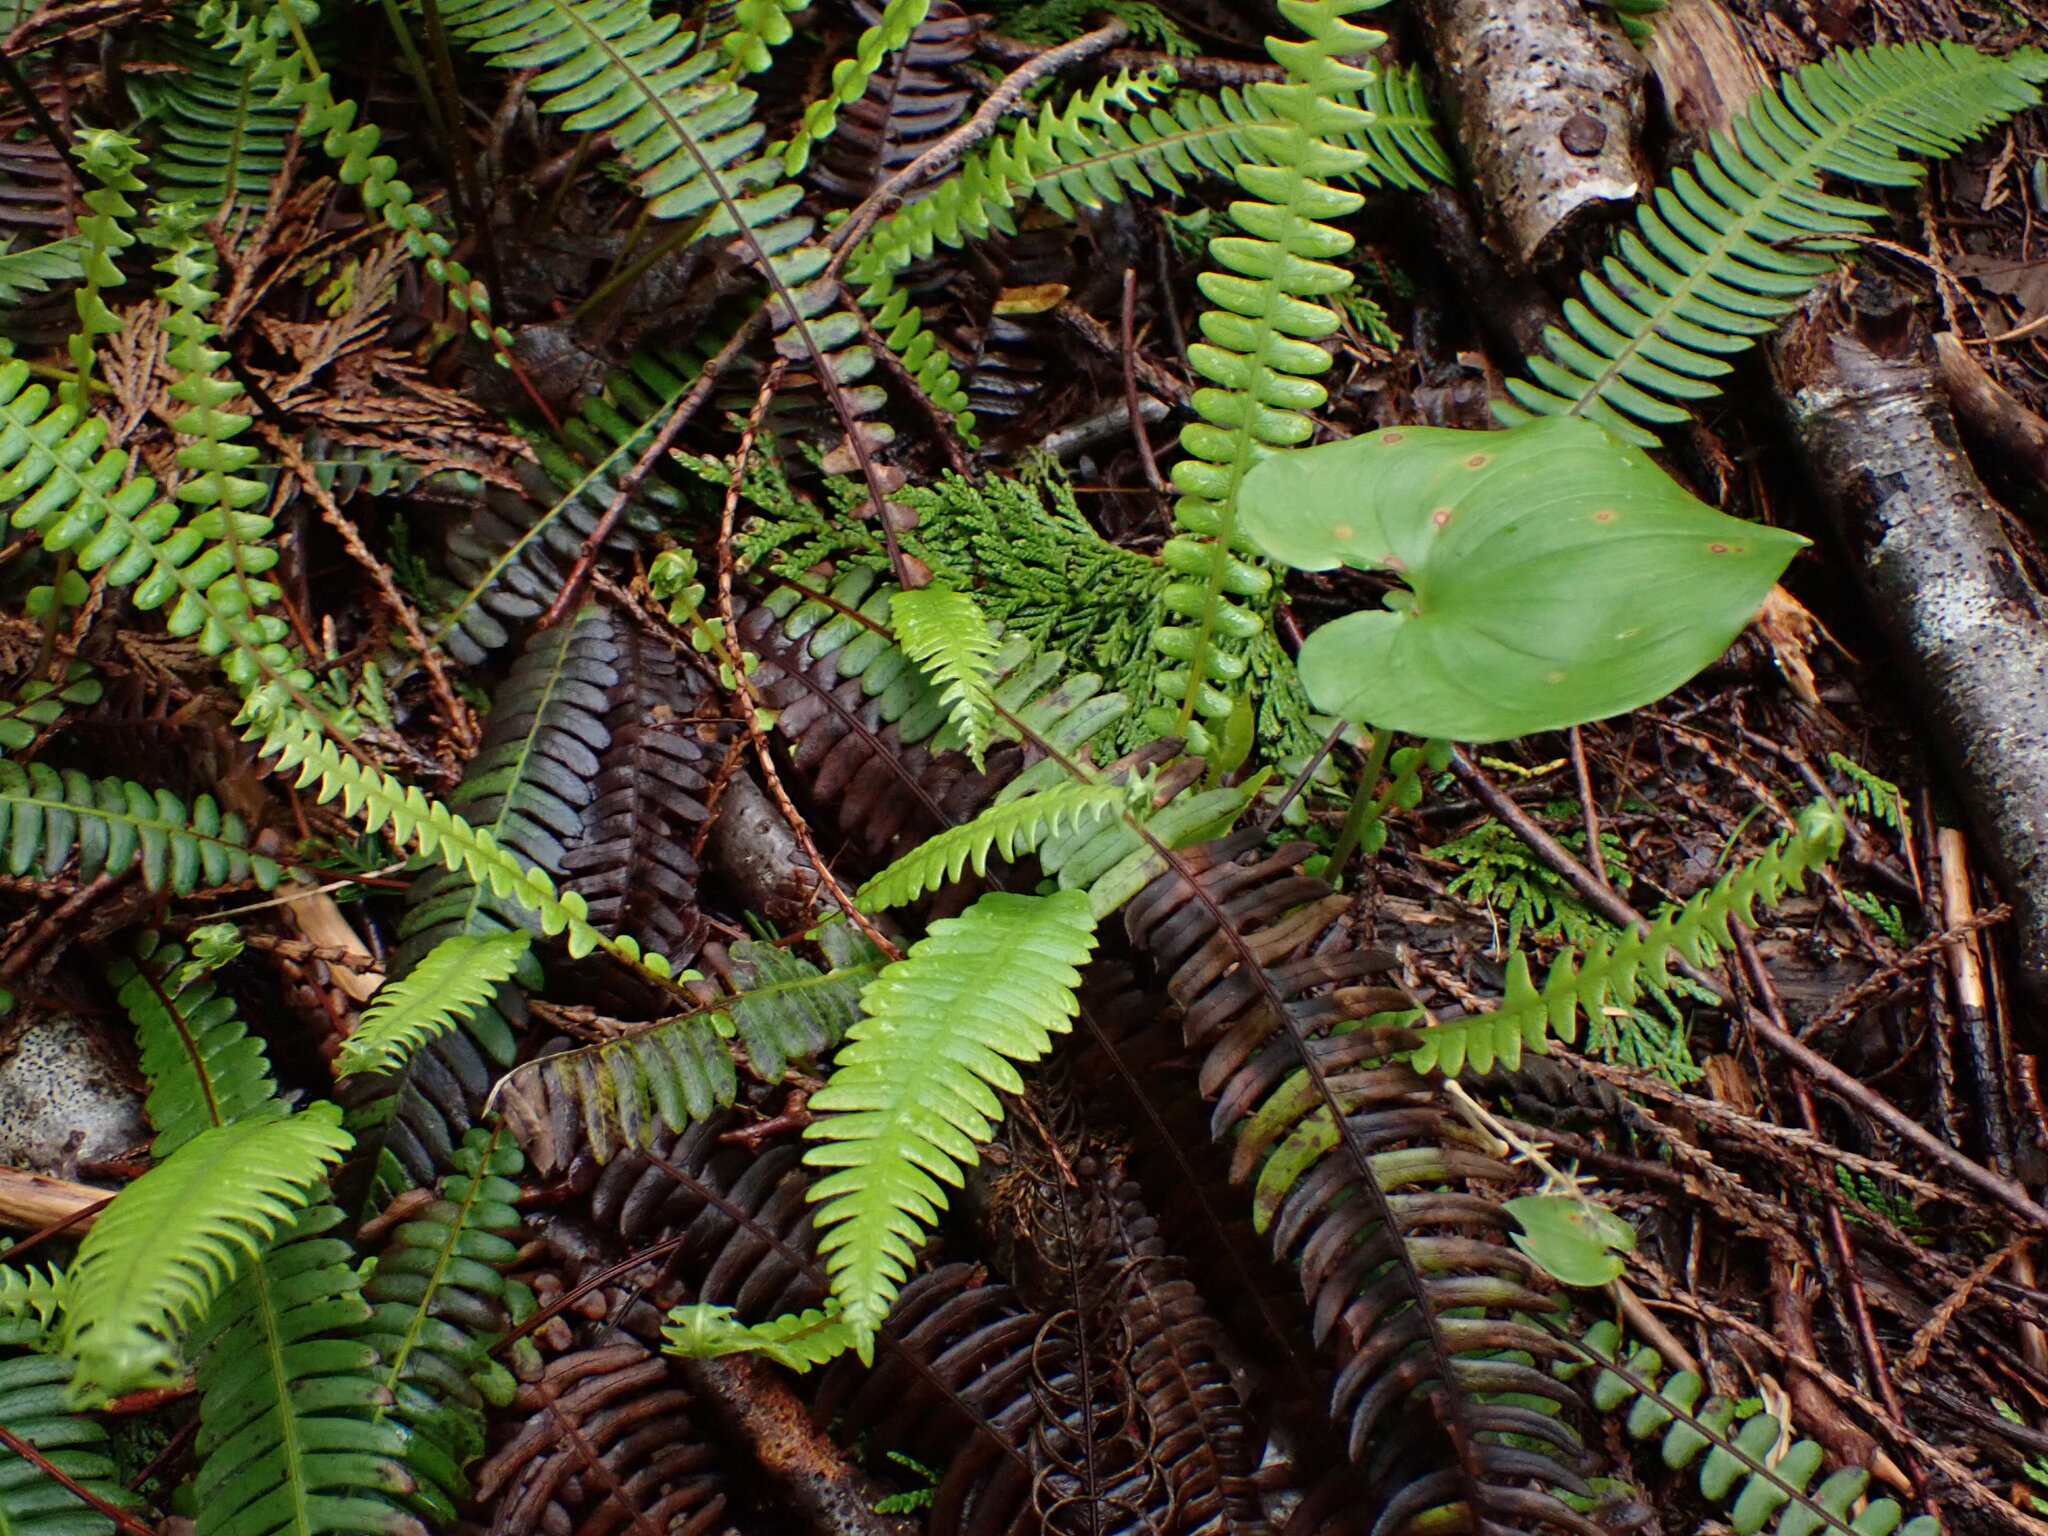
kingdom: Plantae
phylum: Tracheophyta
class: Polypodiopsida
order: Polypodiales
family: Blechnaceae
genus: Struthiopteris
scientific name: Struthiopteris spicant
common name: Deer fern
